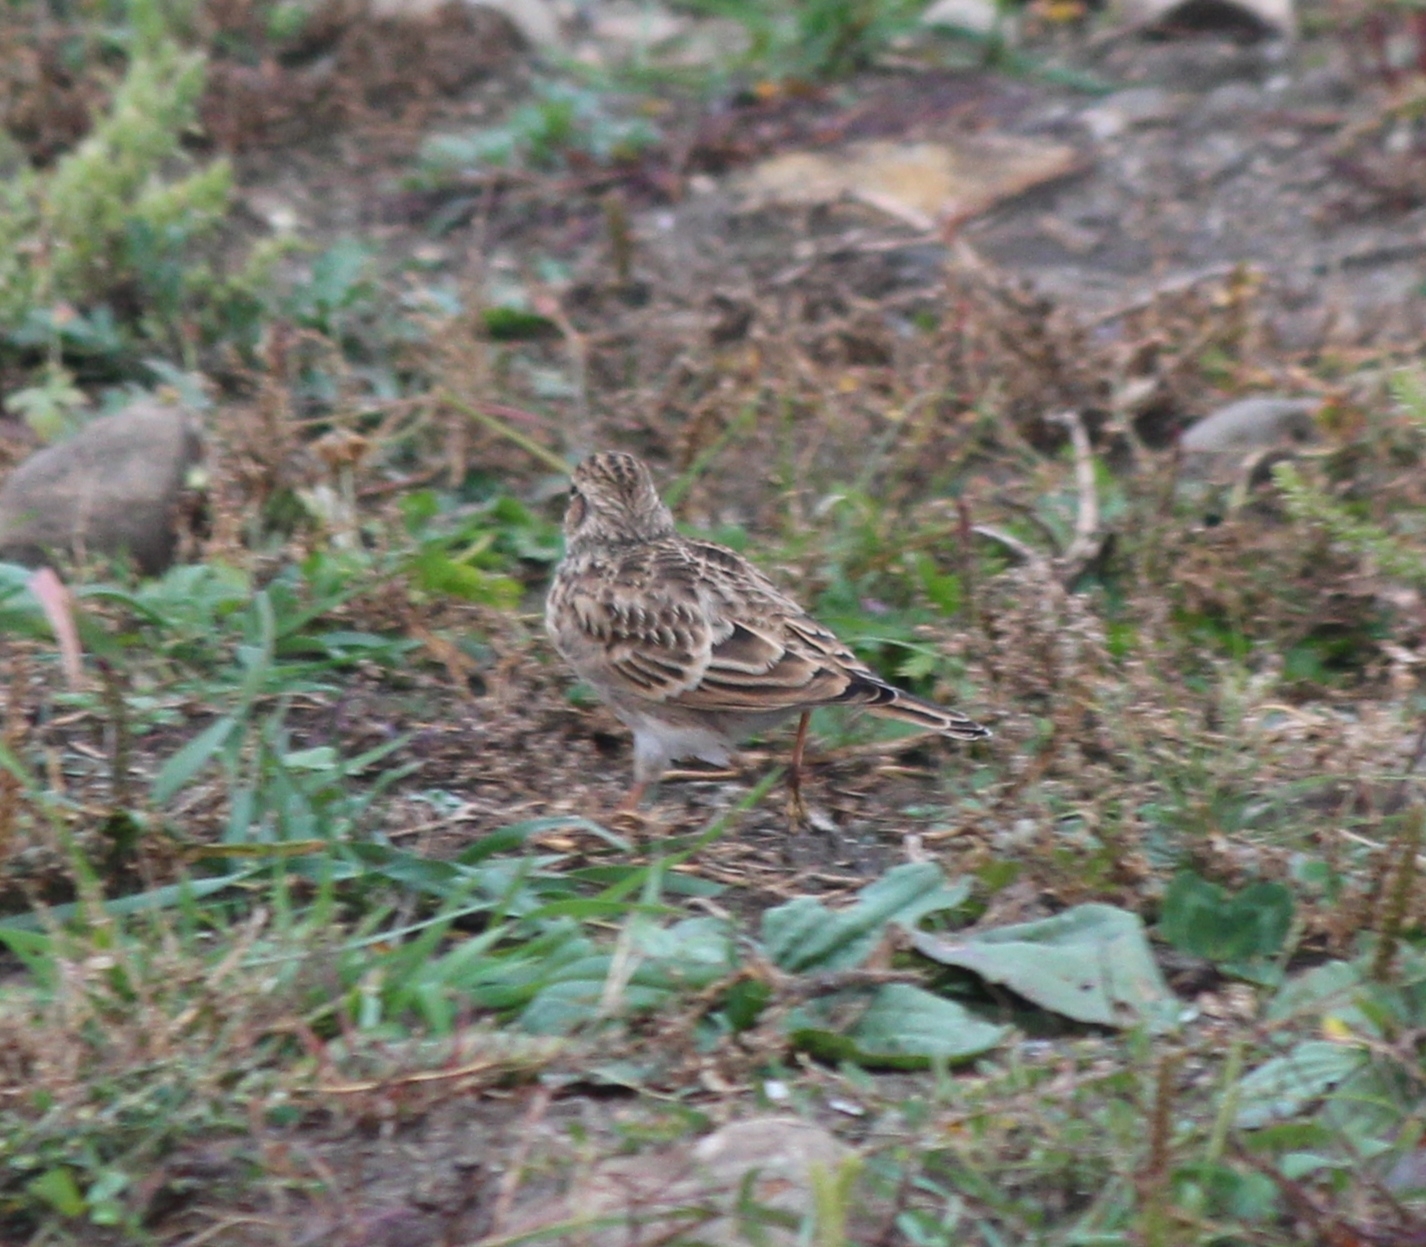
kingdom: Animalia
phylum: Chordata
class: Aves
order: Passeriformes
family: Alaudidae
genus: Alauda
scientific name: Alauda arvensis
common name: Eurasian skylark
